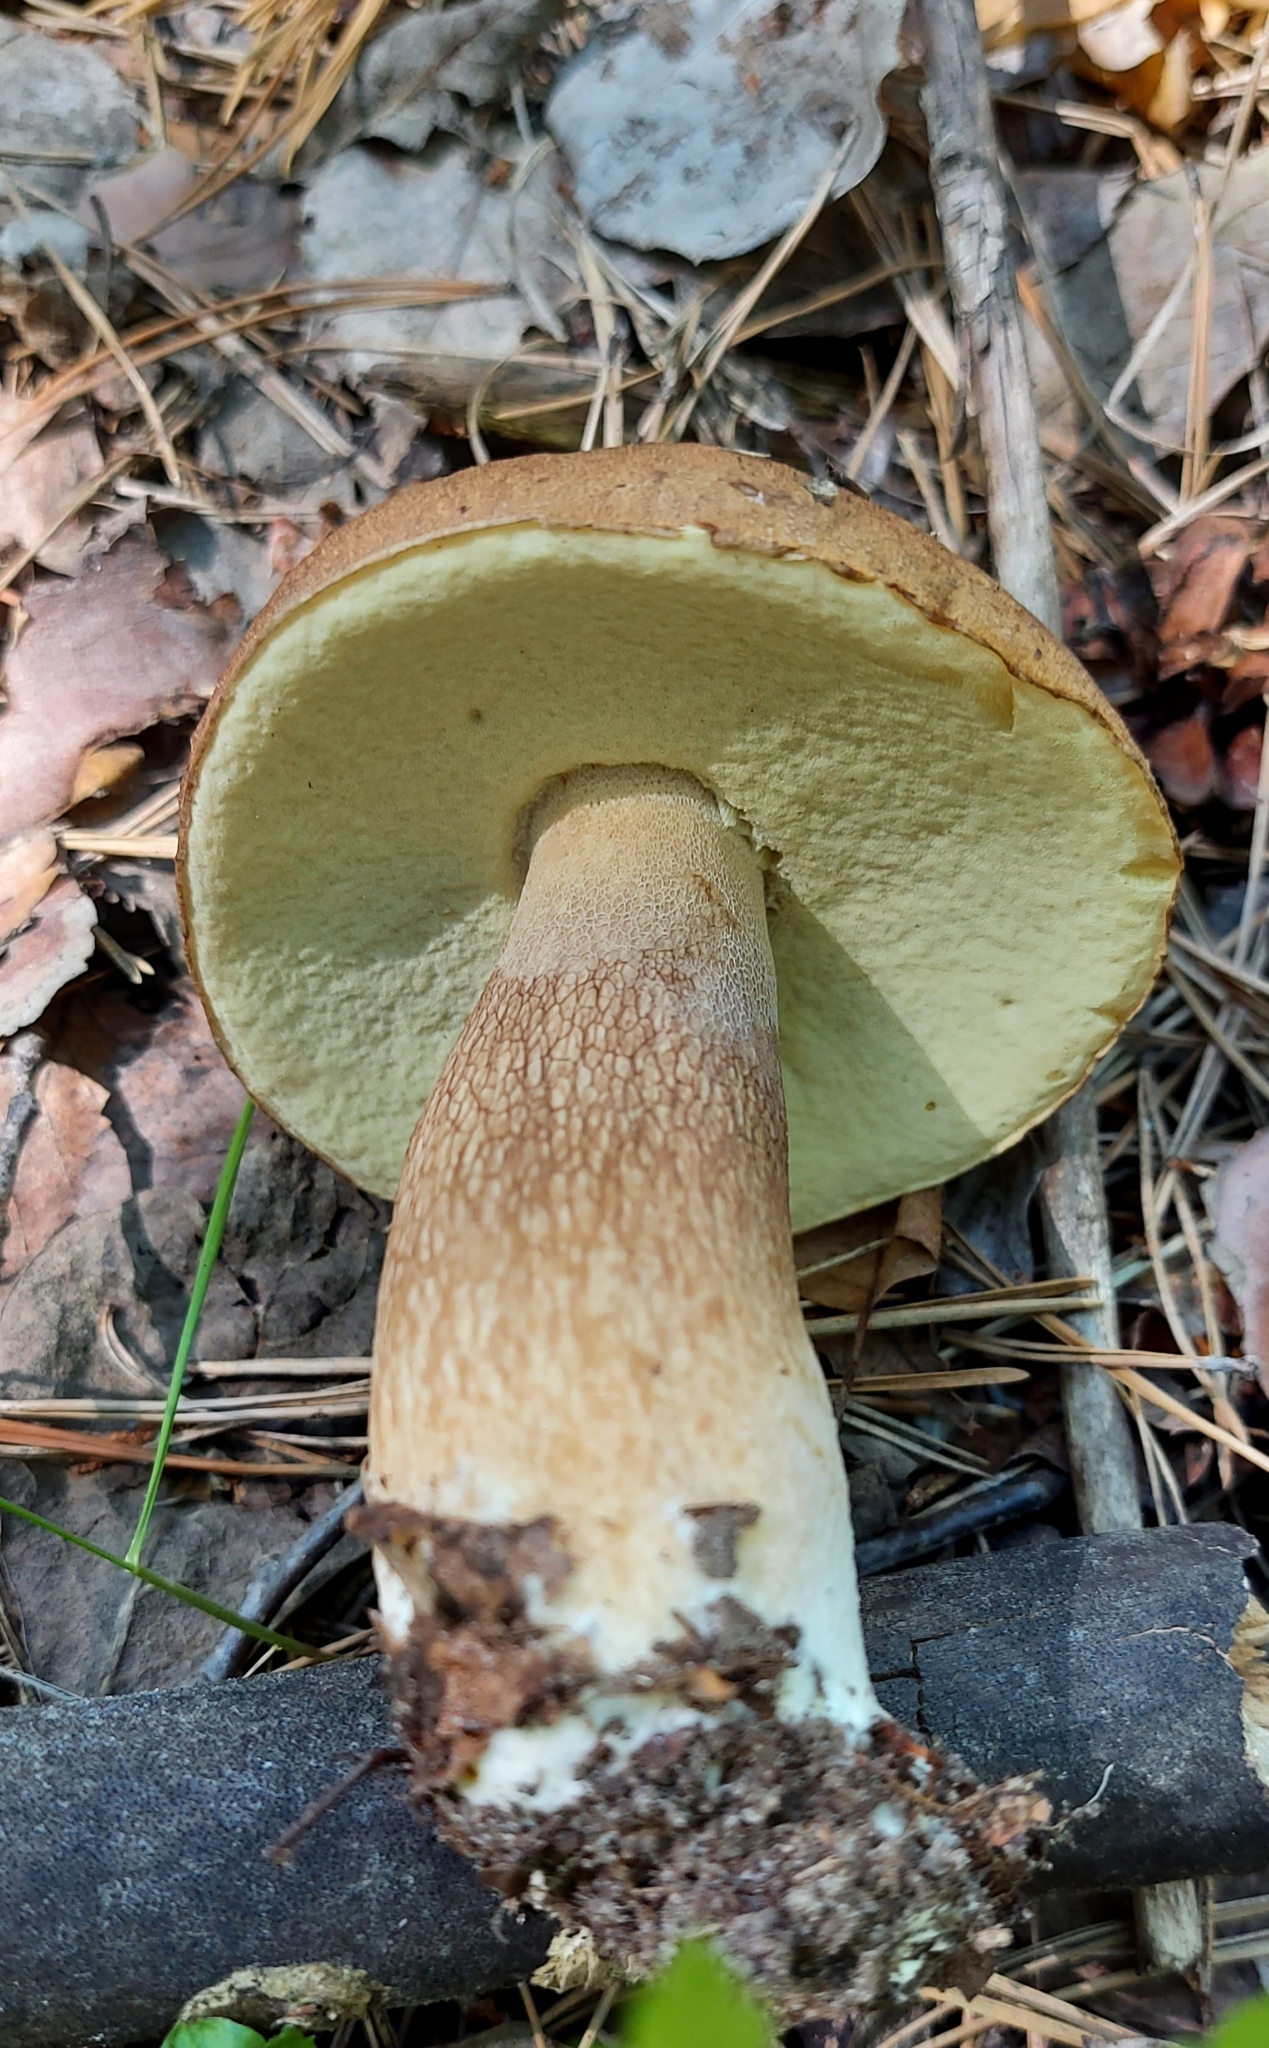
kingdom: Fungi
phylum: Basidiomycota
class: Agaricomycetes
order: Boletales
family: Boletaceae
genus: Boletus
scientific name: Boletus reticulatus
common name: Summer bolete
